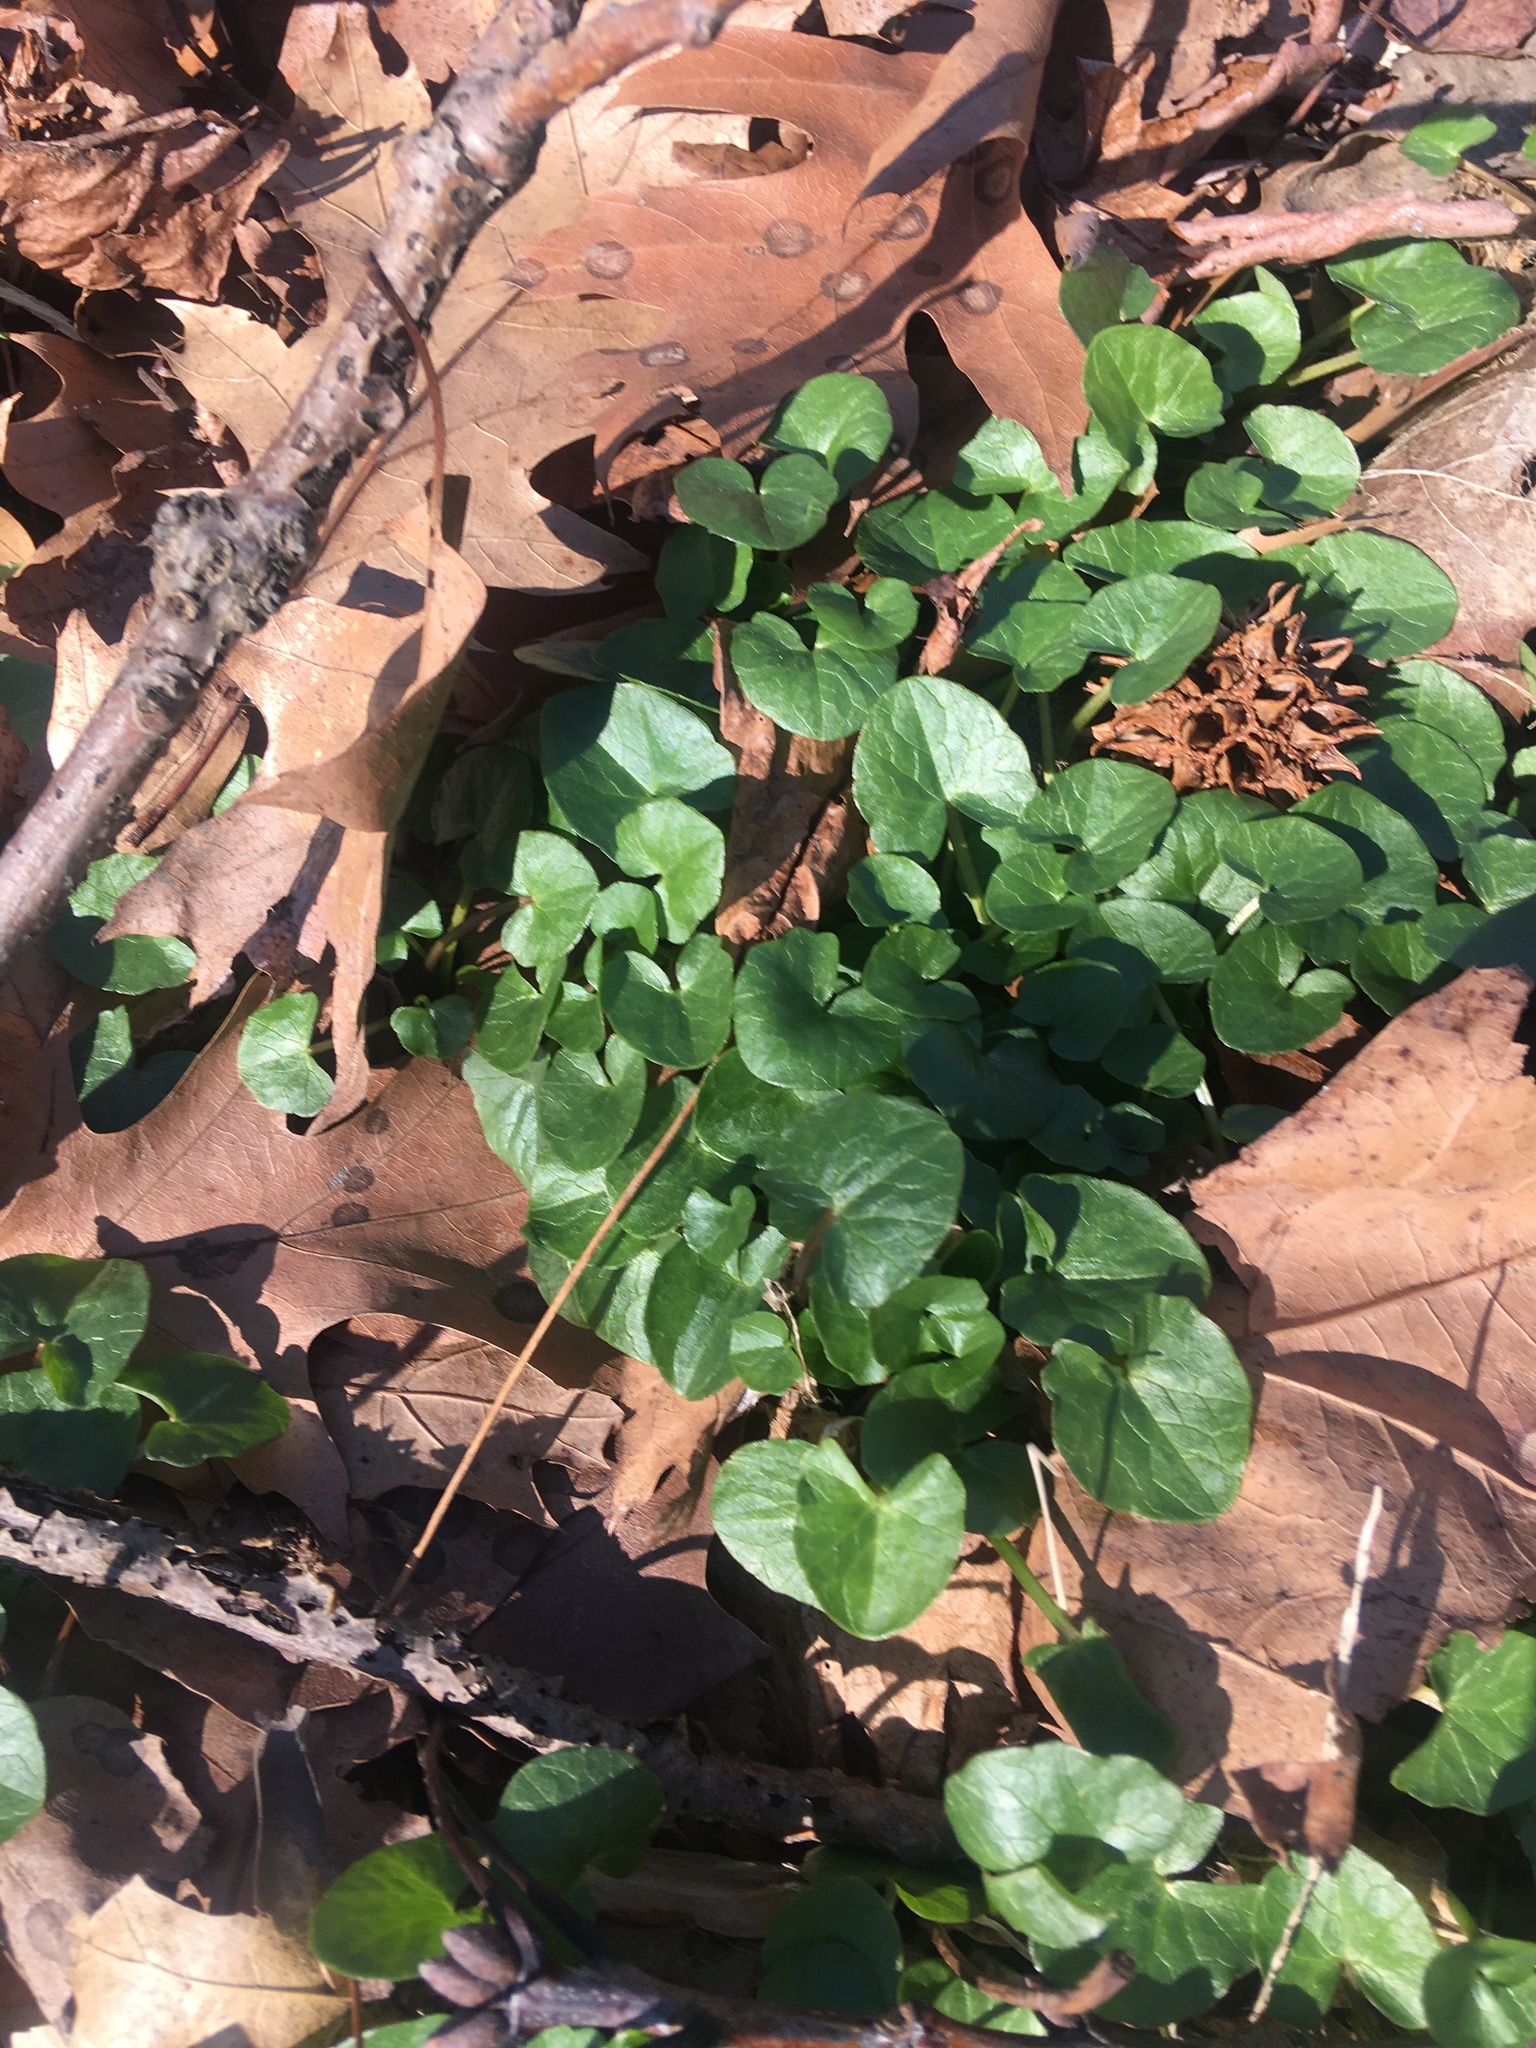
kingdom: Plantae
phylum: Tracheophyta
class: Magnoliopsida
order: Ranunculales
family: Ranunculaceae
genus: Ficaria
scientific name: Ficaria verna
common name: Lesser celandine
